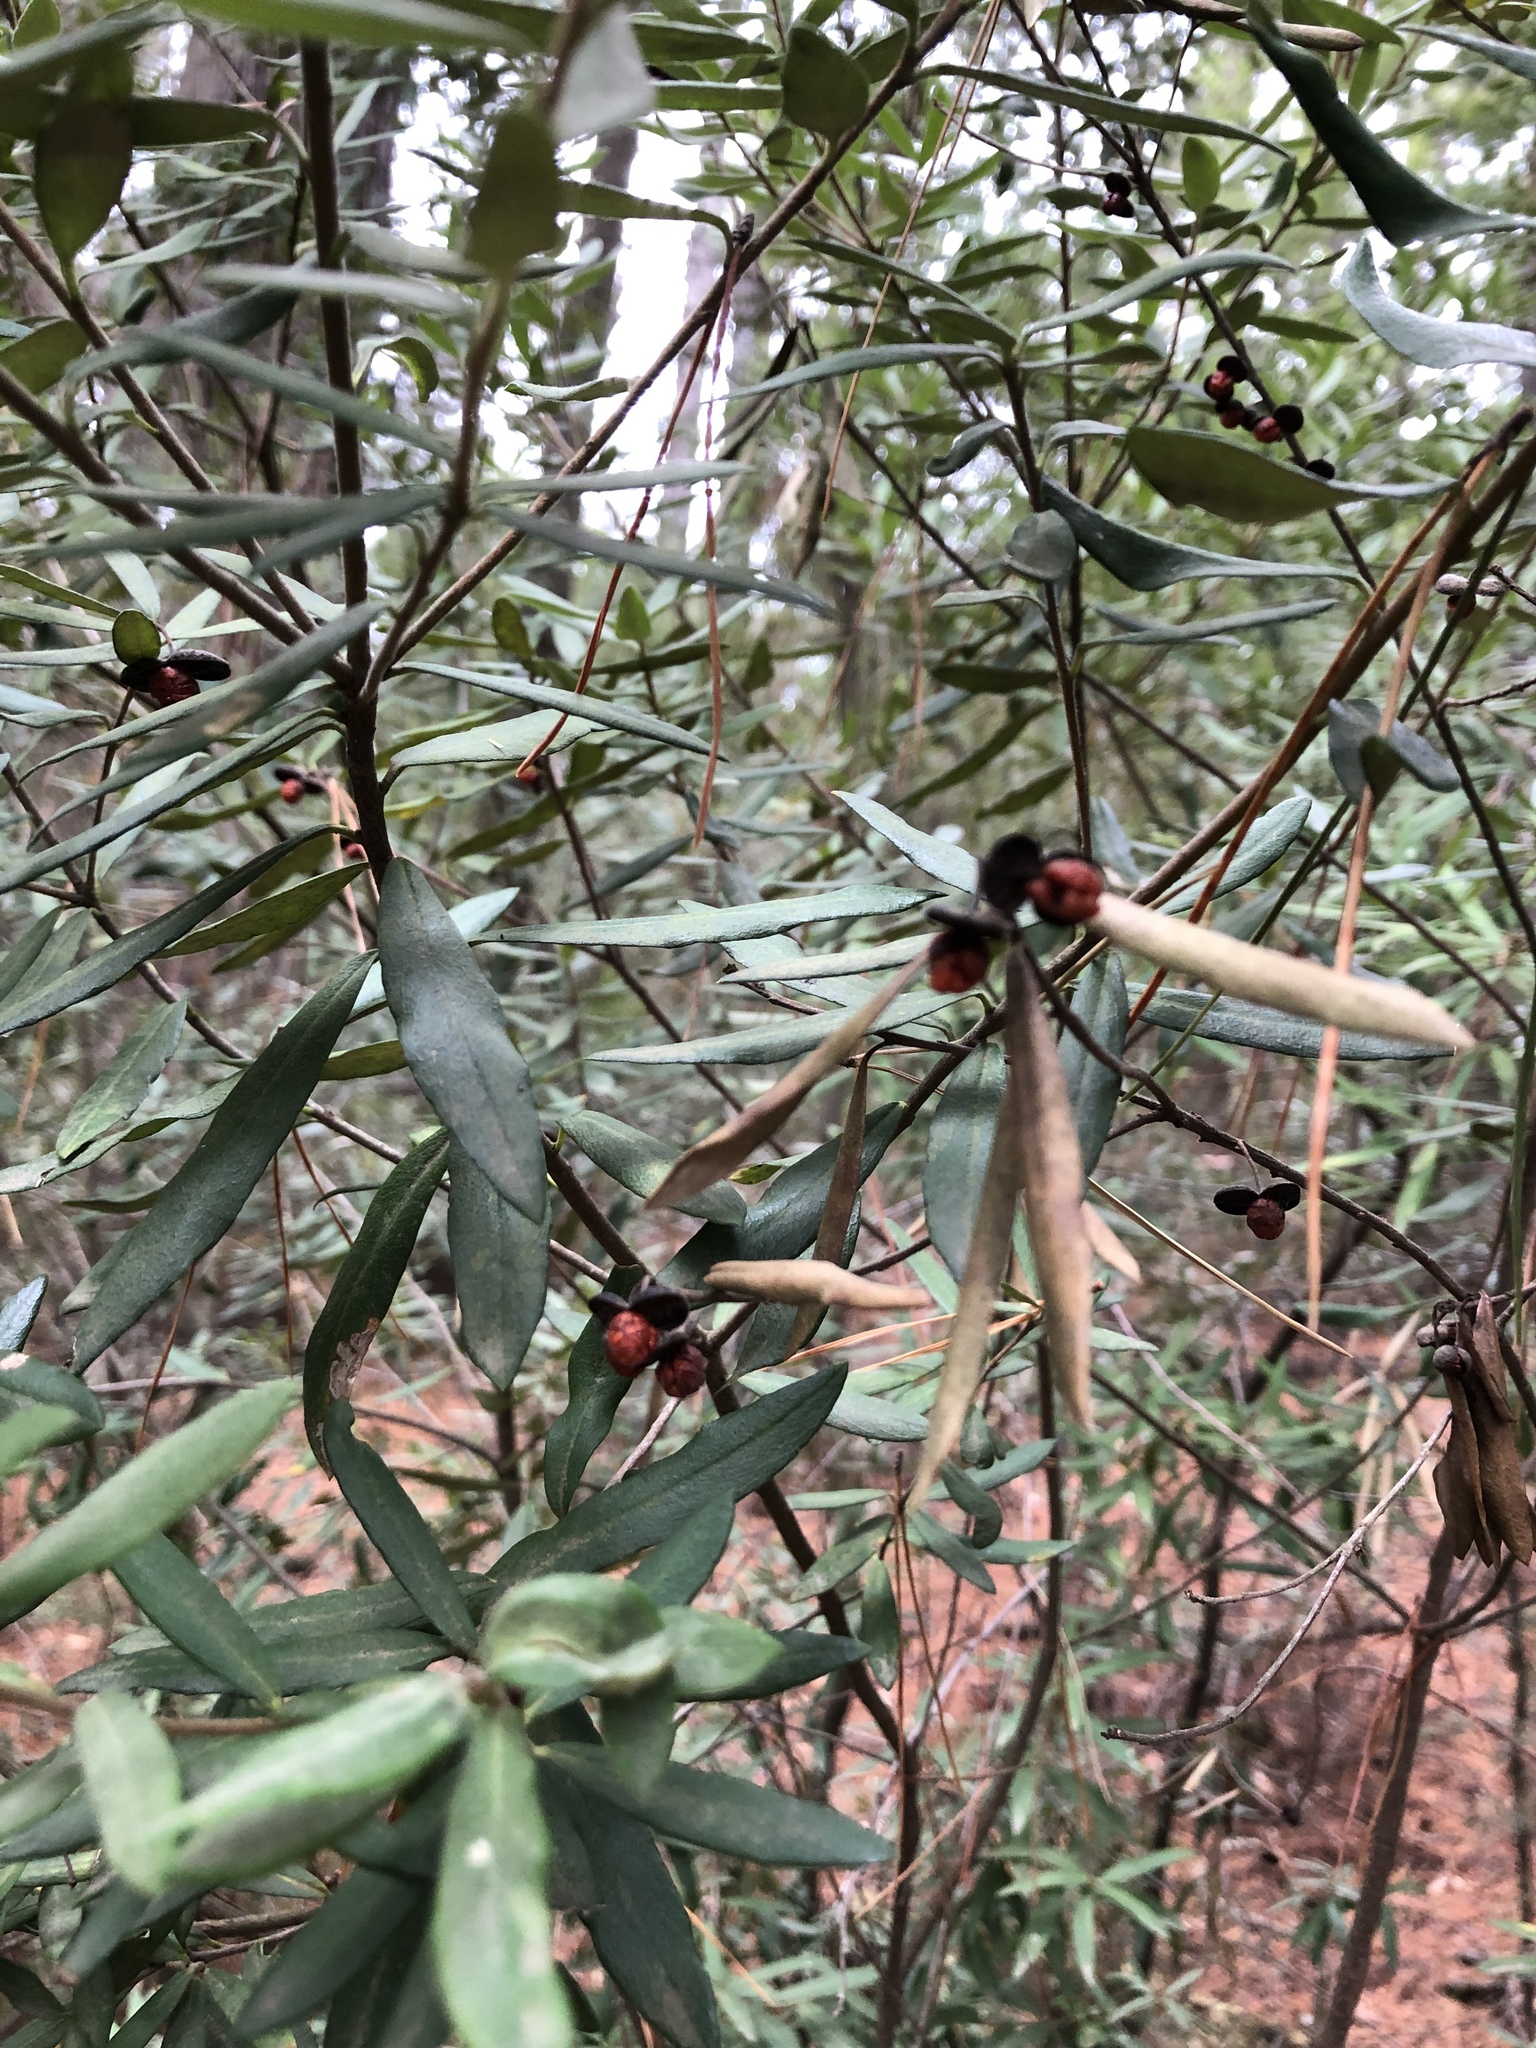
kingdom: Plantae
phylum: Tracheophyta
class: Magnoliopsida
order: Apiales
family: Pittosporaceae
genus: Pittosporum
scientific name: Pittosporum bicolor
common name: Tallowwood
